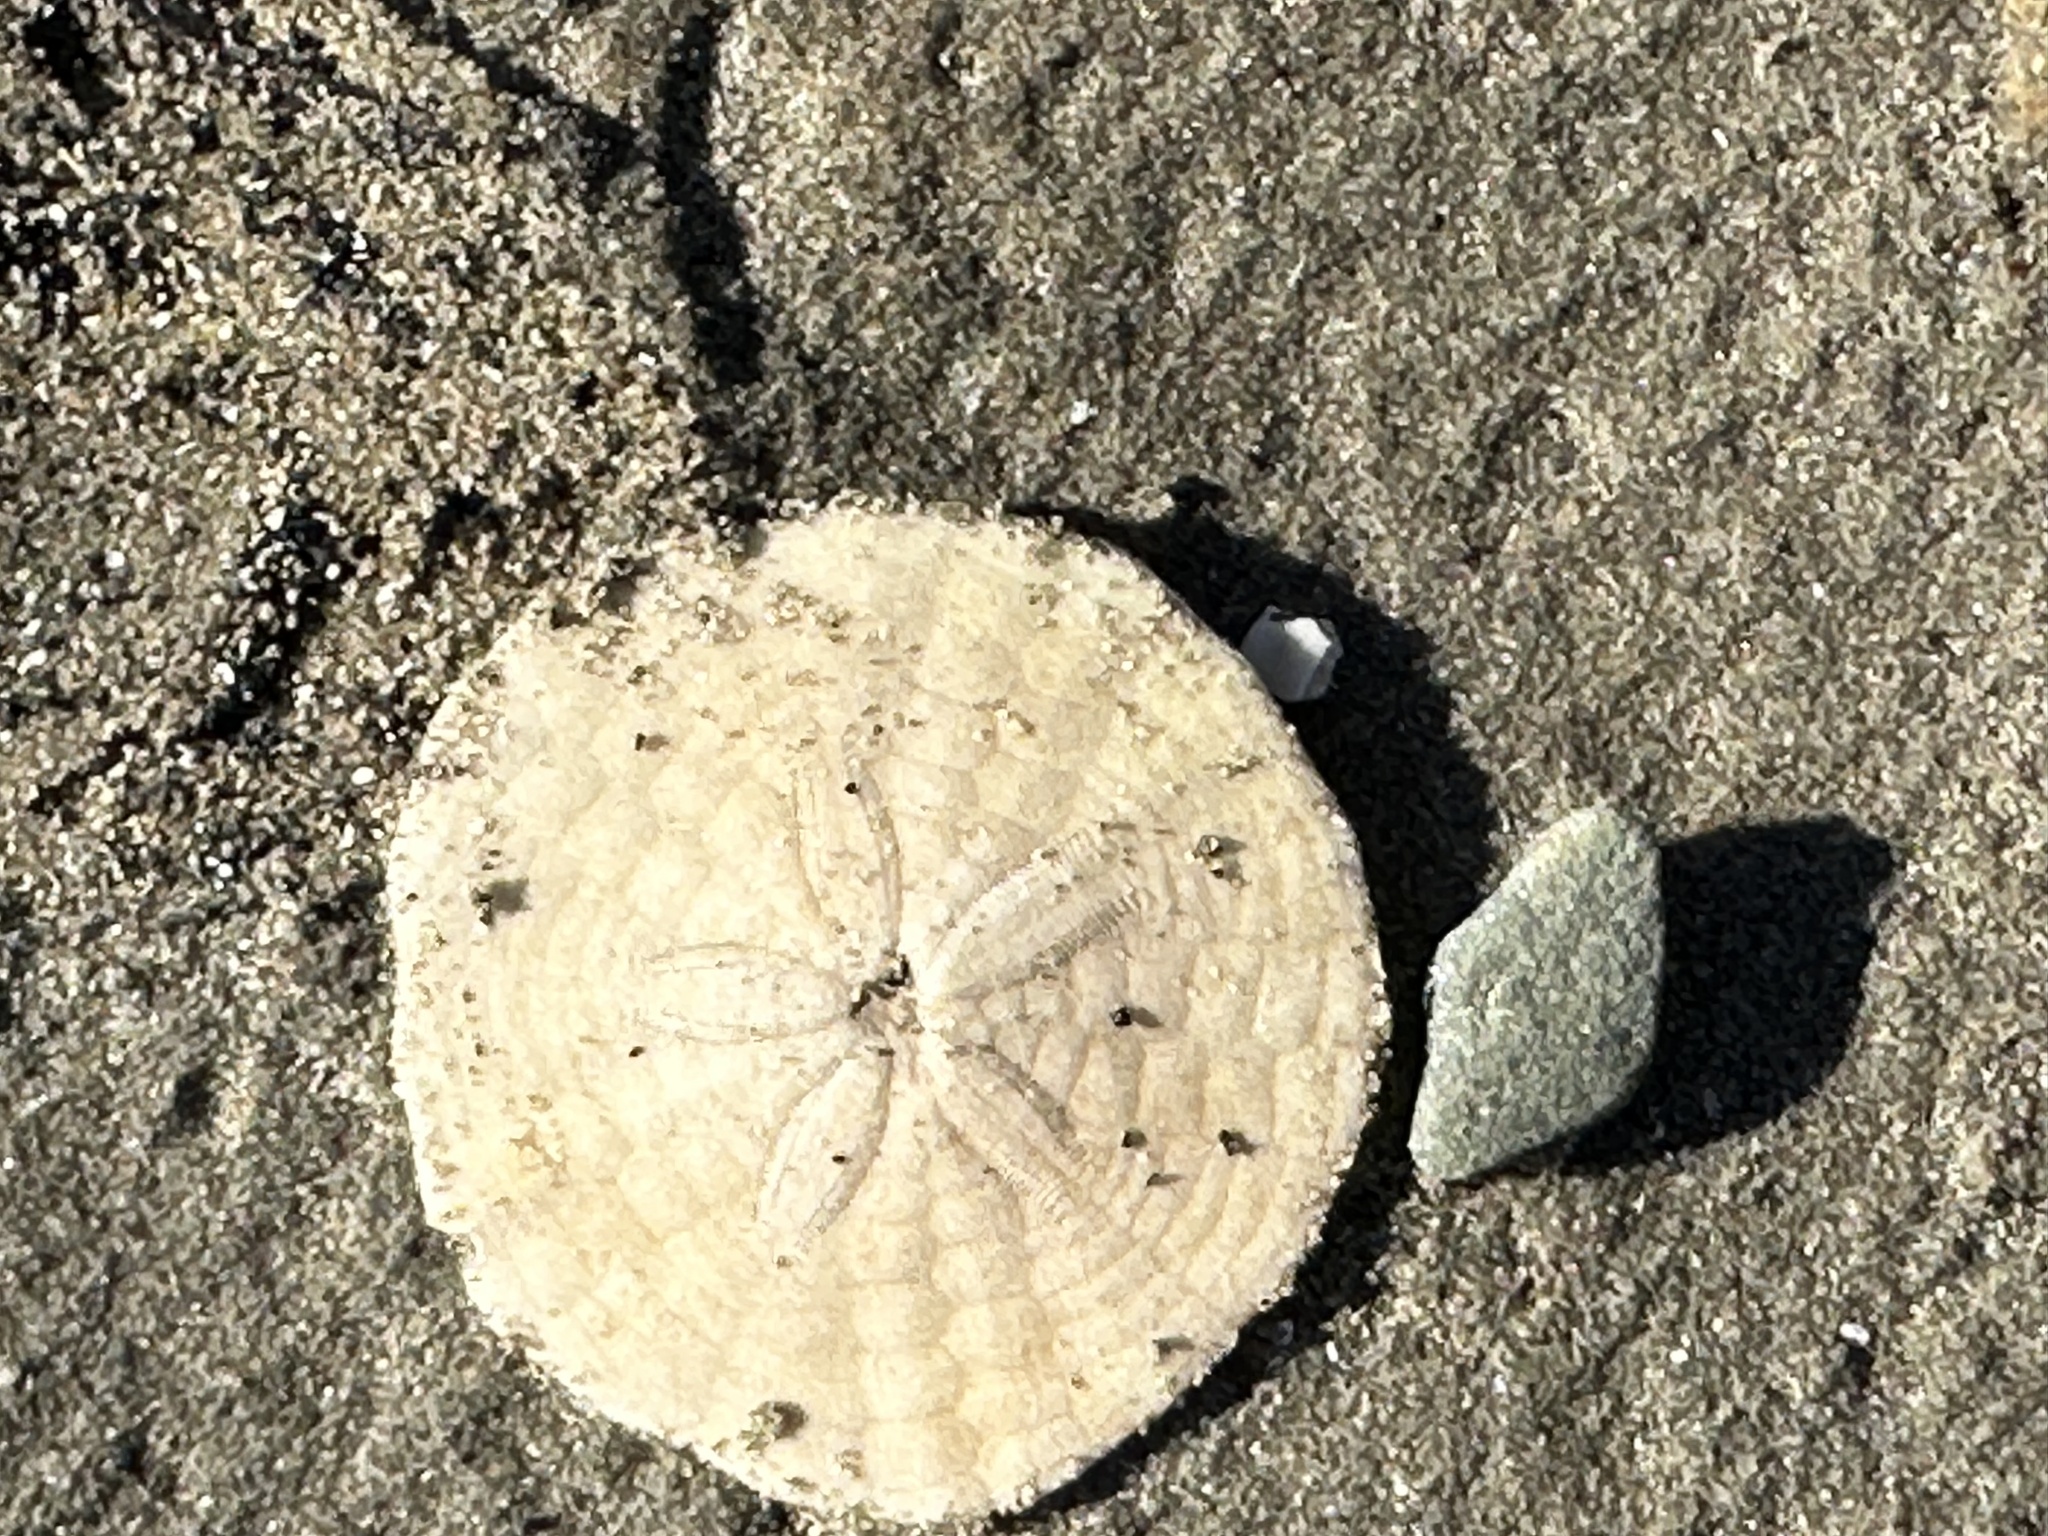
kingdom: Animalia
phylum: Echinodermata
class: Echinoidea
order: Echinolampadacea
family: Echinarachniidae
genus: Echinarachnius
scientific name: Echinarachnius parma
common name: Common sand dollar
